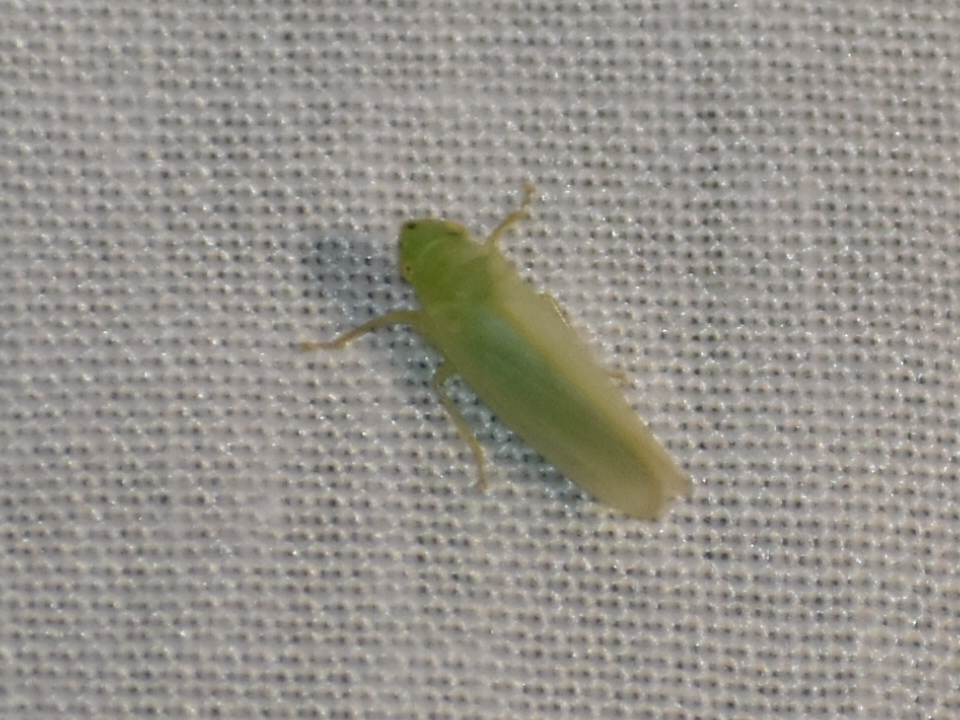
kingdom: Animalia
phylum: Arthropoda
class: Insecta
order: Hemiptera
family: Cicadellidae
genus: Pagaronia
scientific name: Pagaronia minor
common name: Leafhopper
